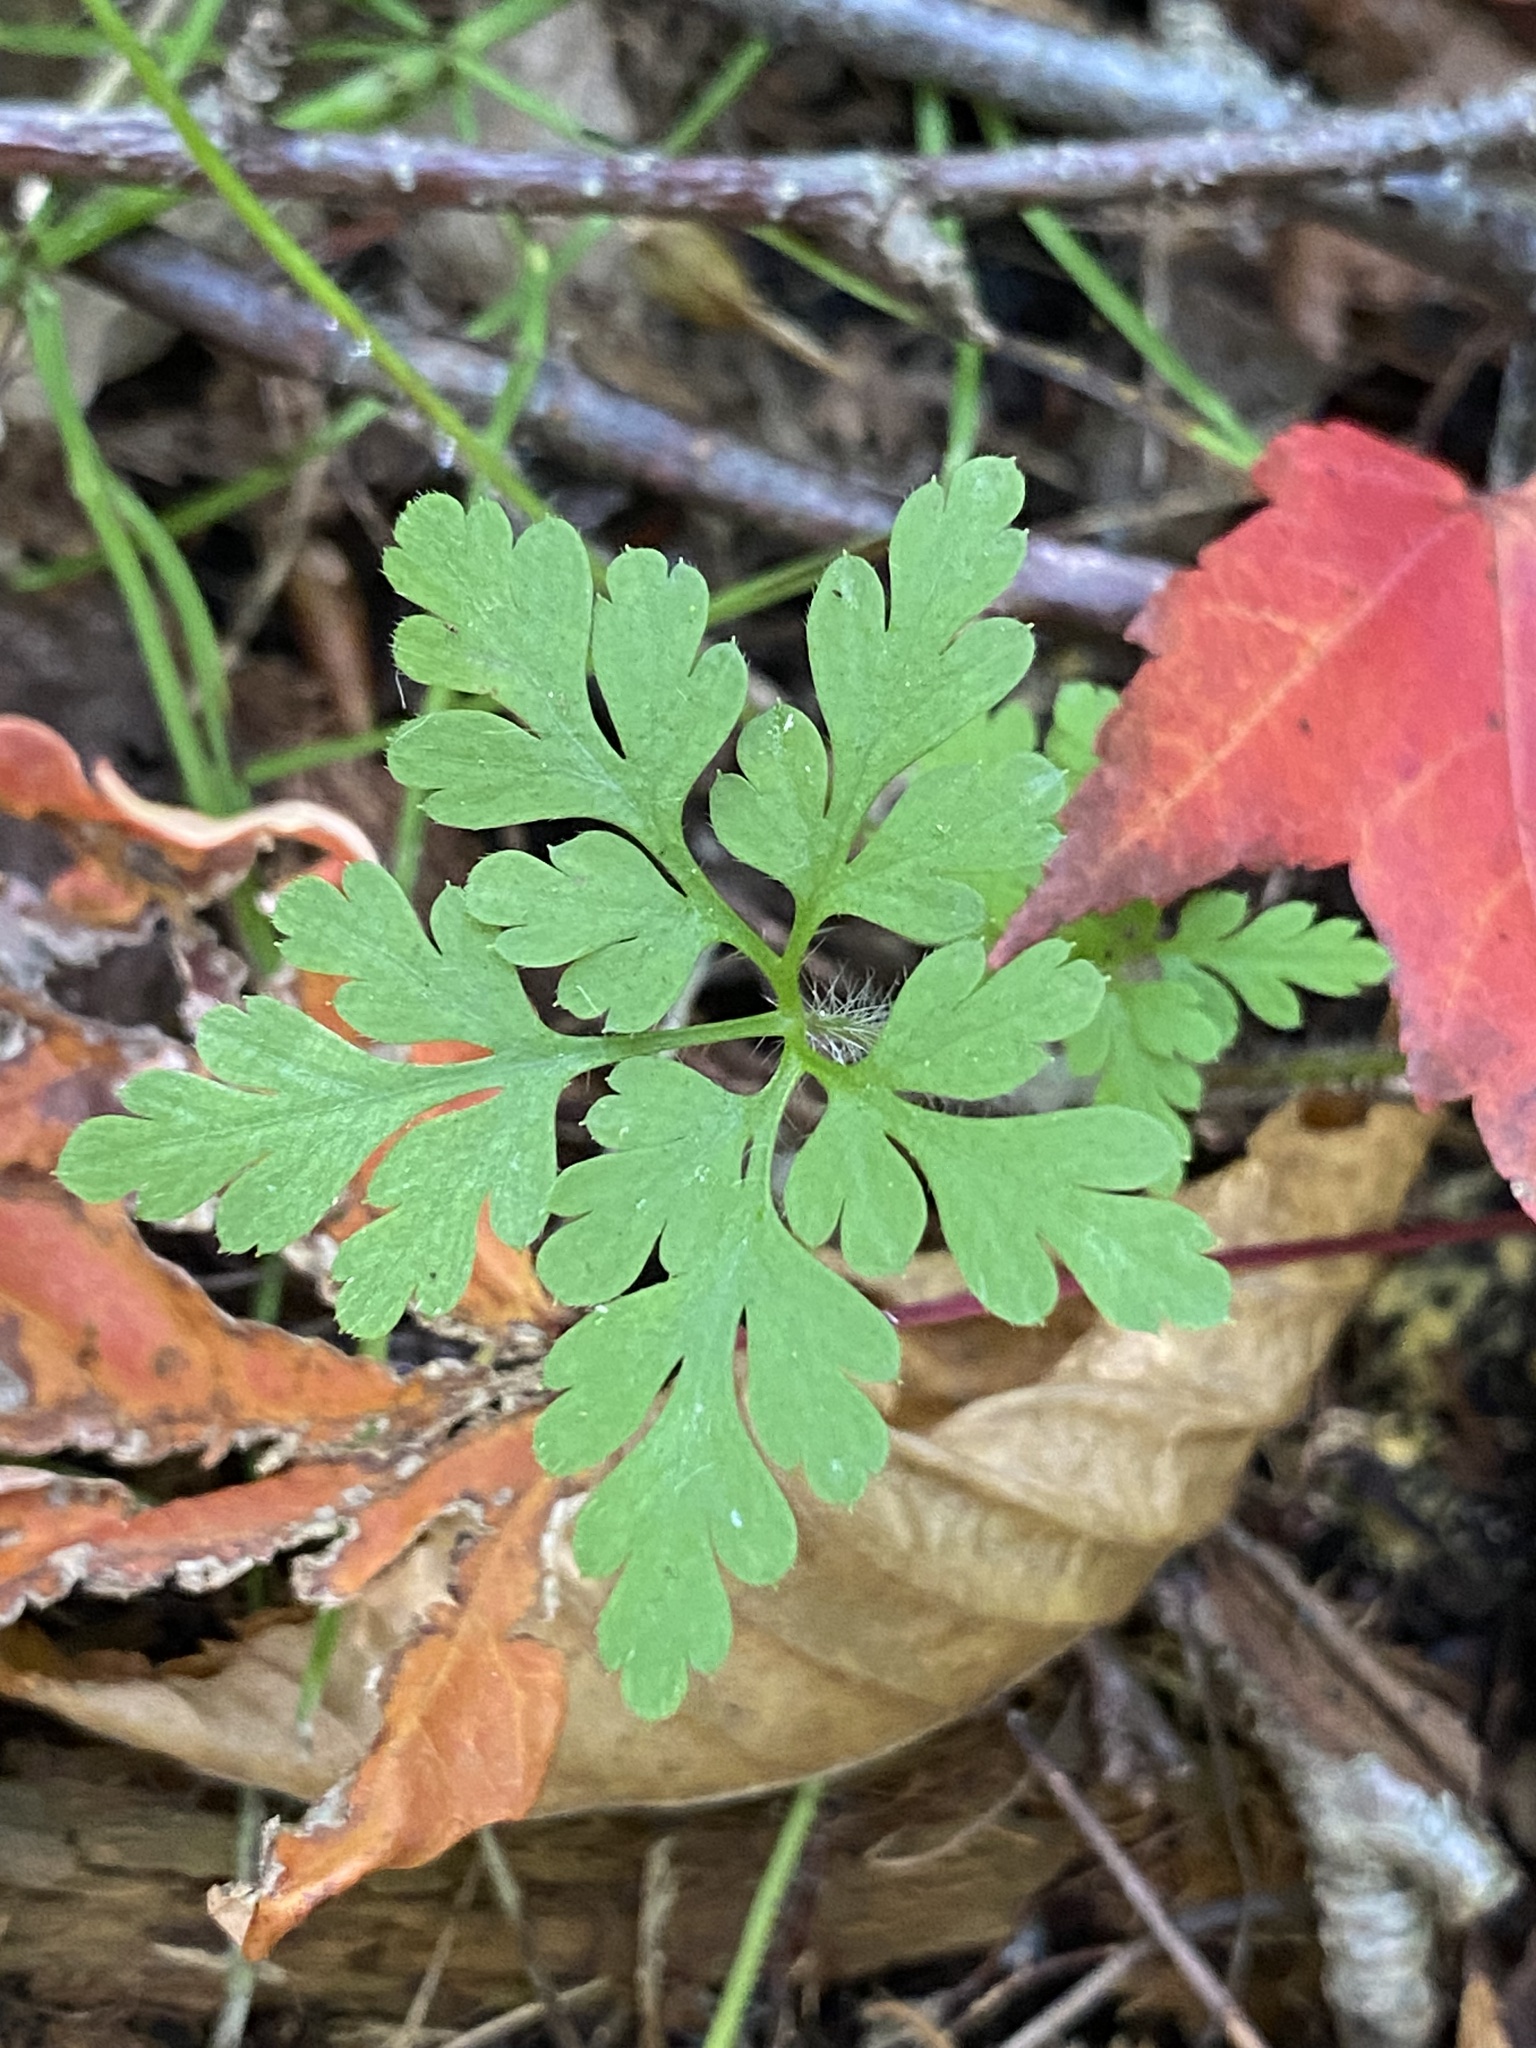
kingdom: Plantae
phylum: Tracheophyta
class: Magnoliopsida
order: Geraniales
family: Geraniaceae
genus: Geranium
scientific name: Geranium robertianum
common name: Herb-robert
